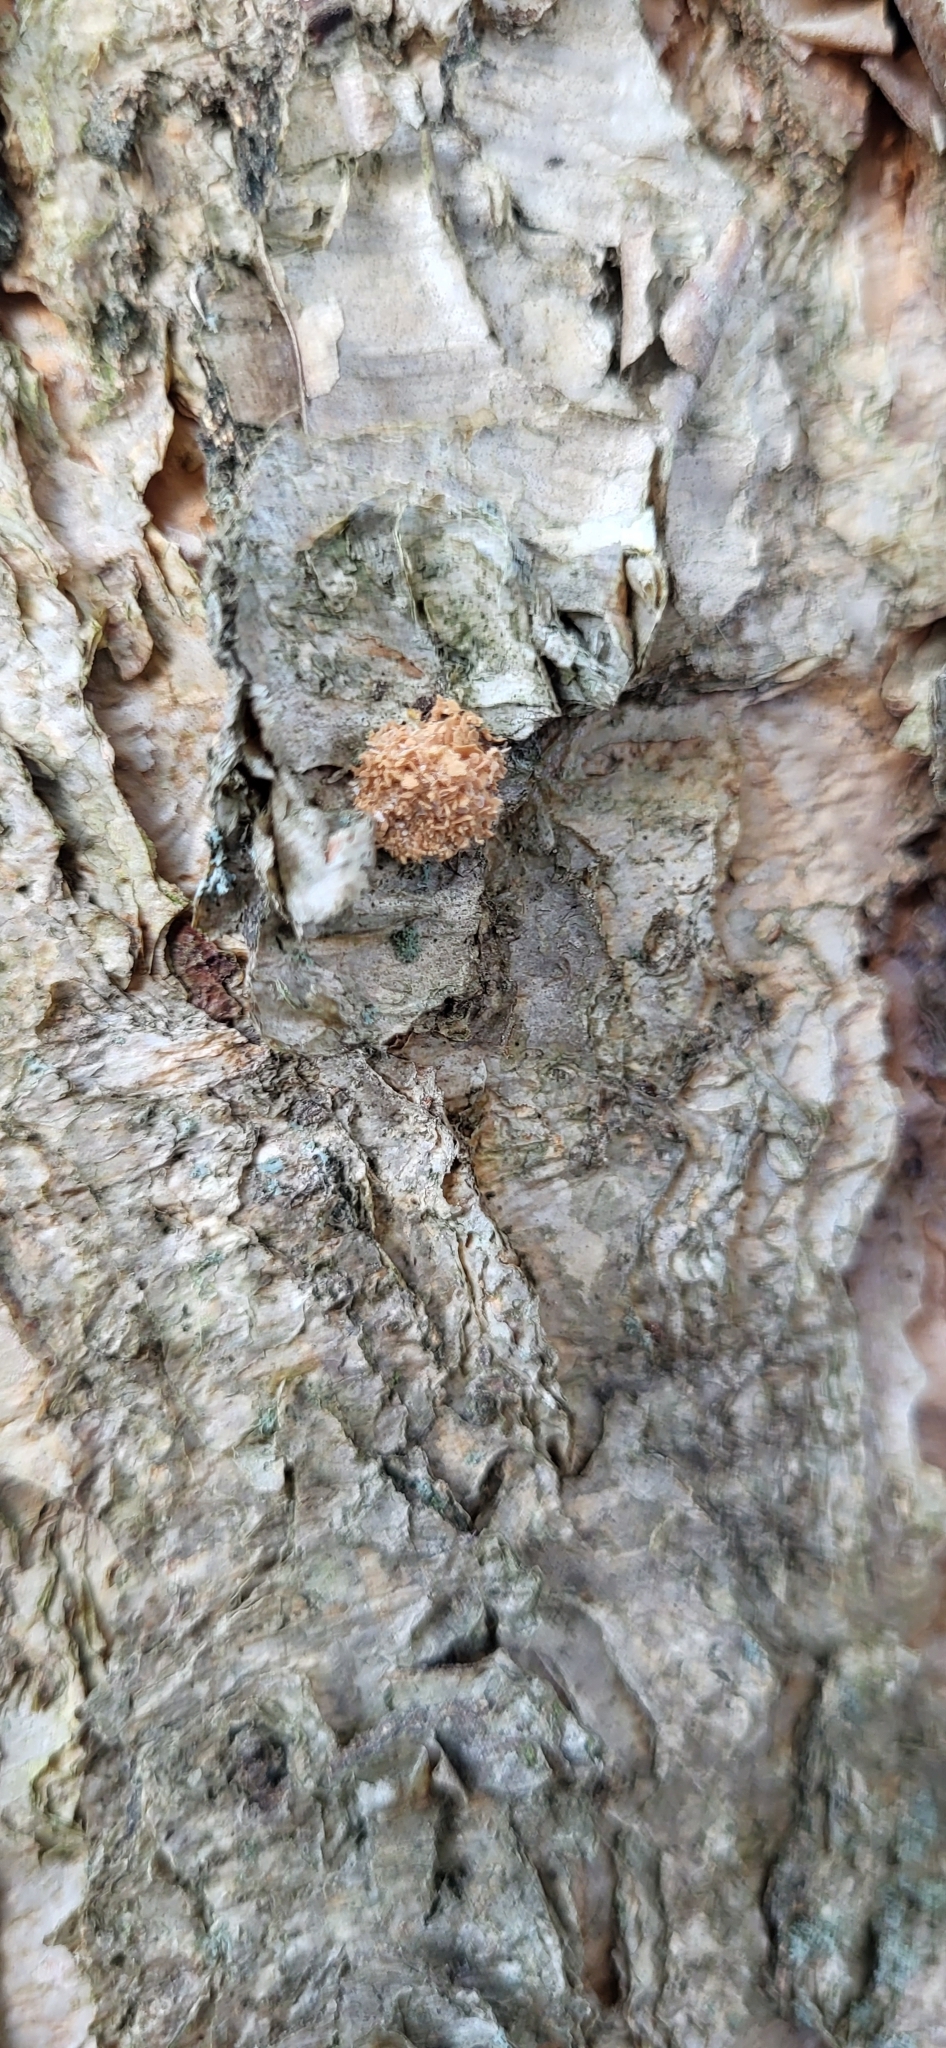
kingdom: Animalia
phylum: Arthropoda
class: Insecta
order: Neuroptera
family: Chrysopidae
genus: Leucochrysa
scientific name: Leucochrysa pavida
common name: Lichen-carrying green lacewing
